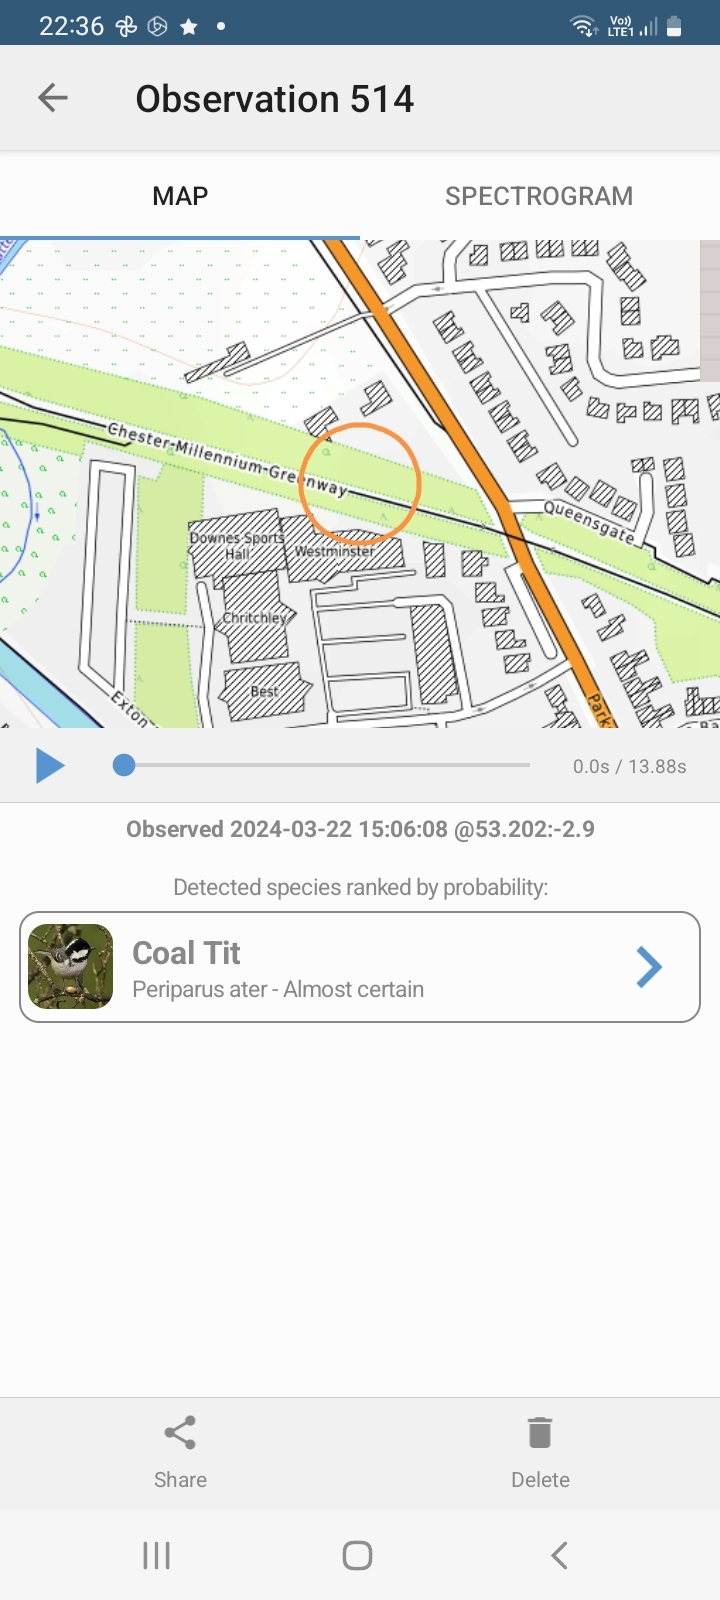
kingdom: Animalia
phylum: Chordata
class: Aves
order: Passeriformes
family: Paridae
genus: Periparus
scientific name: Periparus ater
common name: Coal tit
